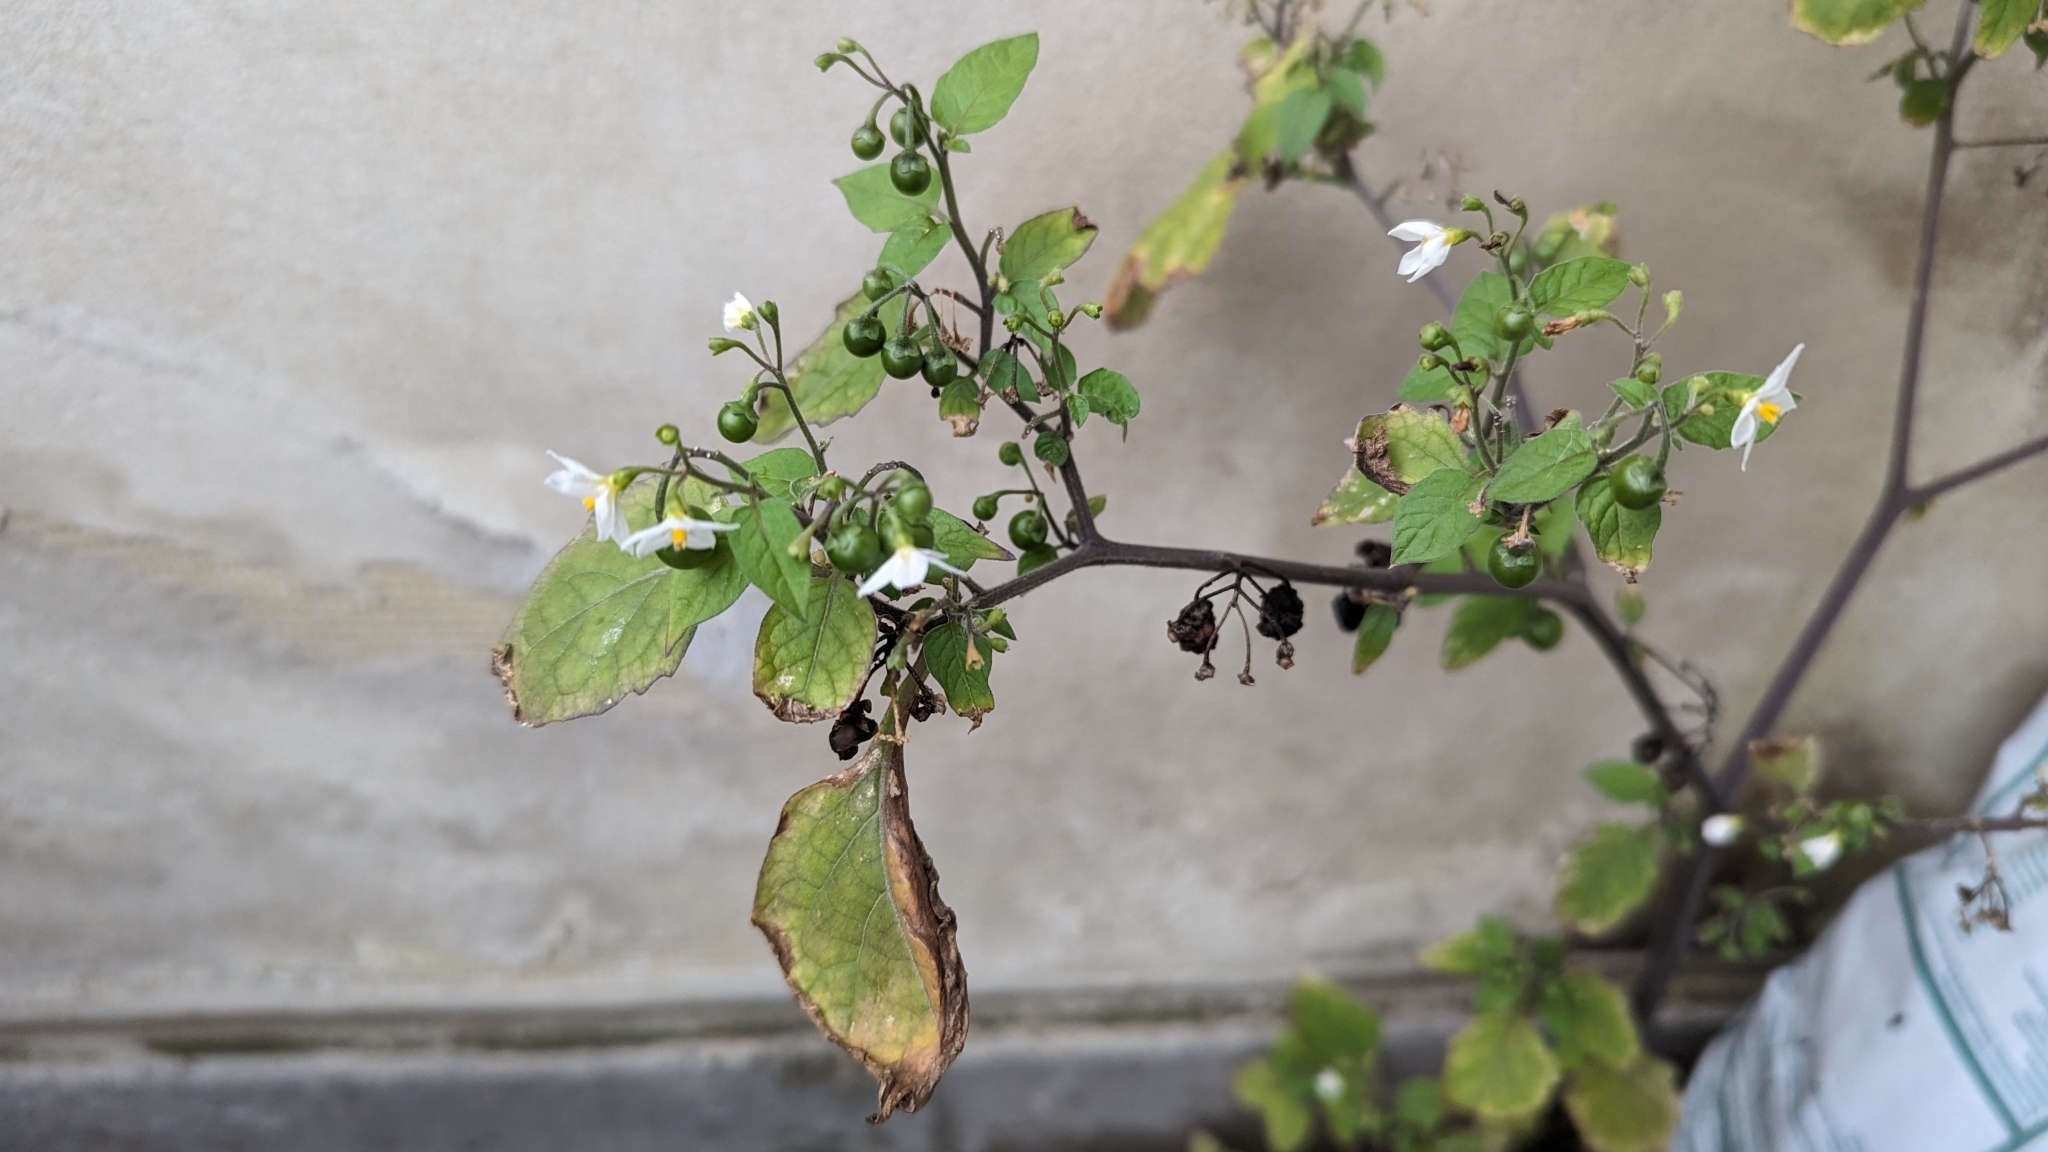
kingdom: Plantae
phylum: Tracheophyta
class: Magnoliopsida
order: Solanales
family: Solanaceae
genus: Solanum
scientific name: Solanum nigrum
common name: Black nightshade
